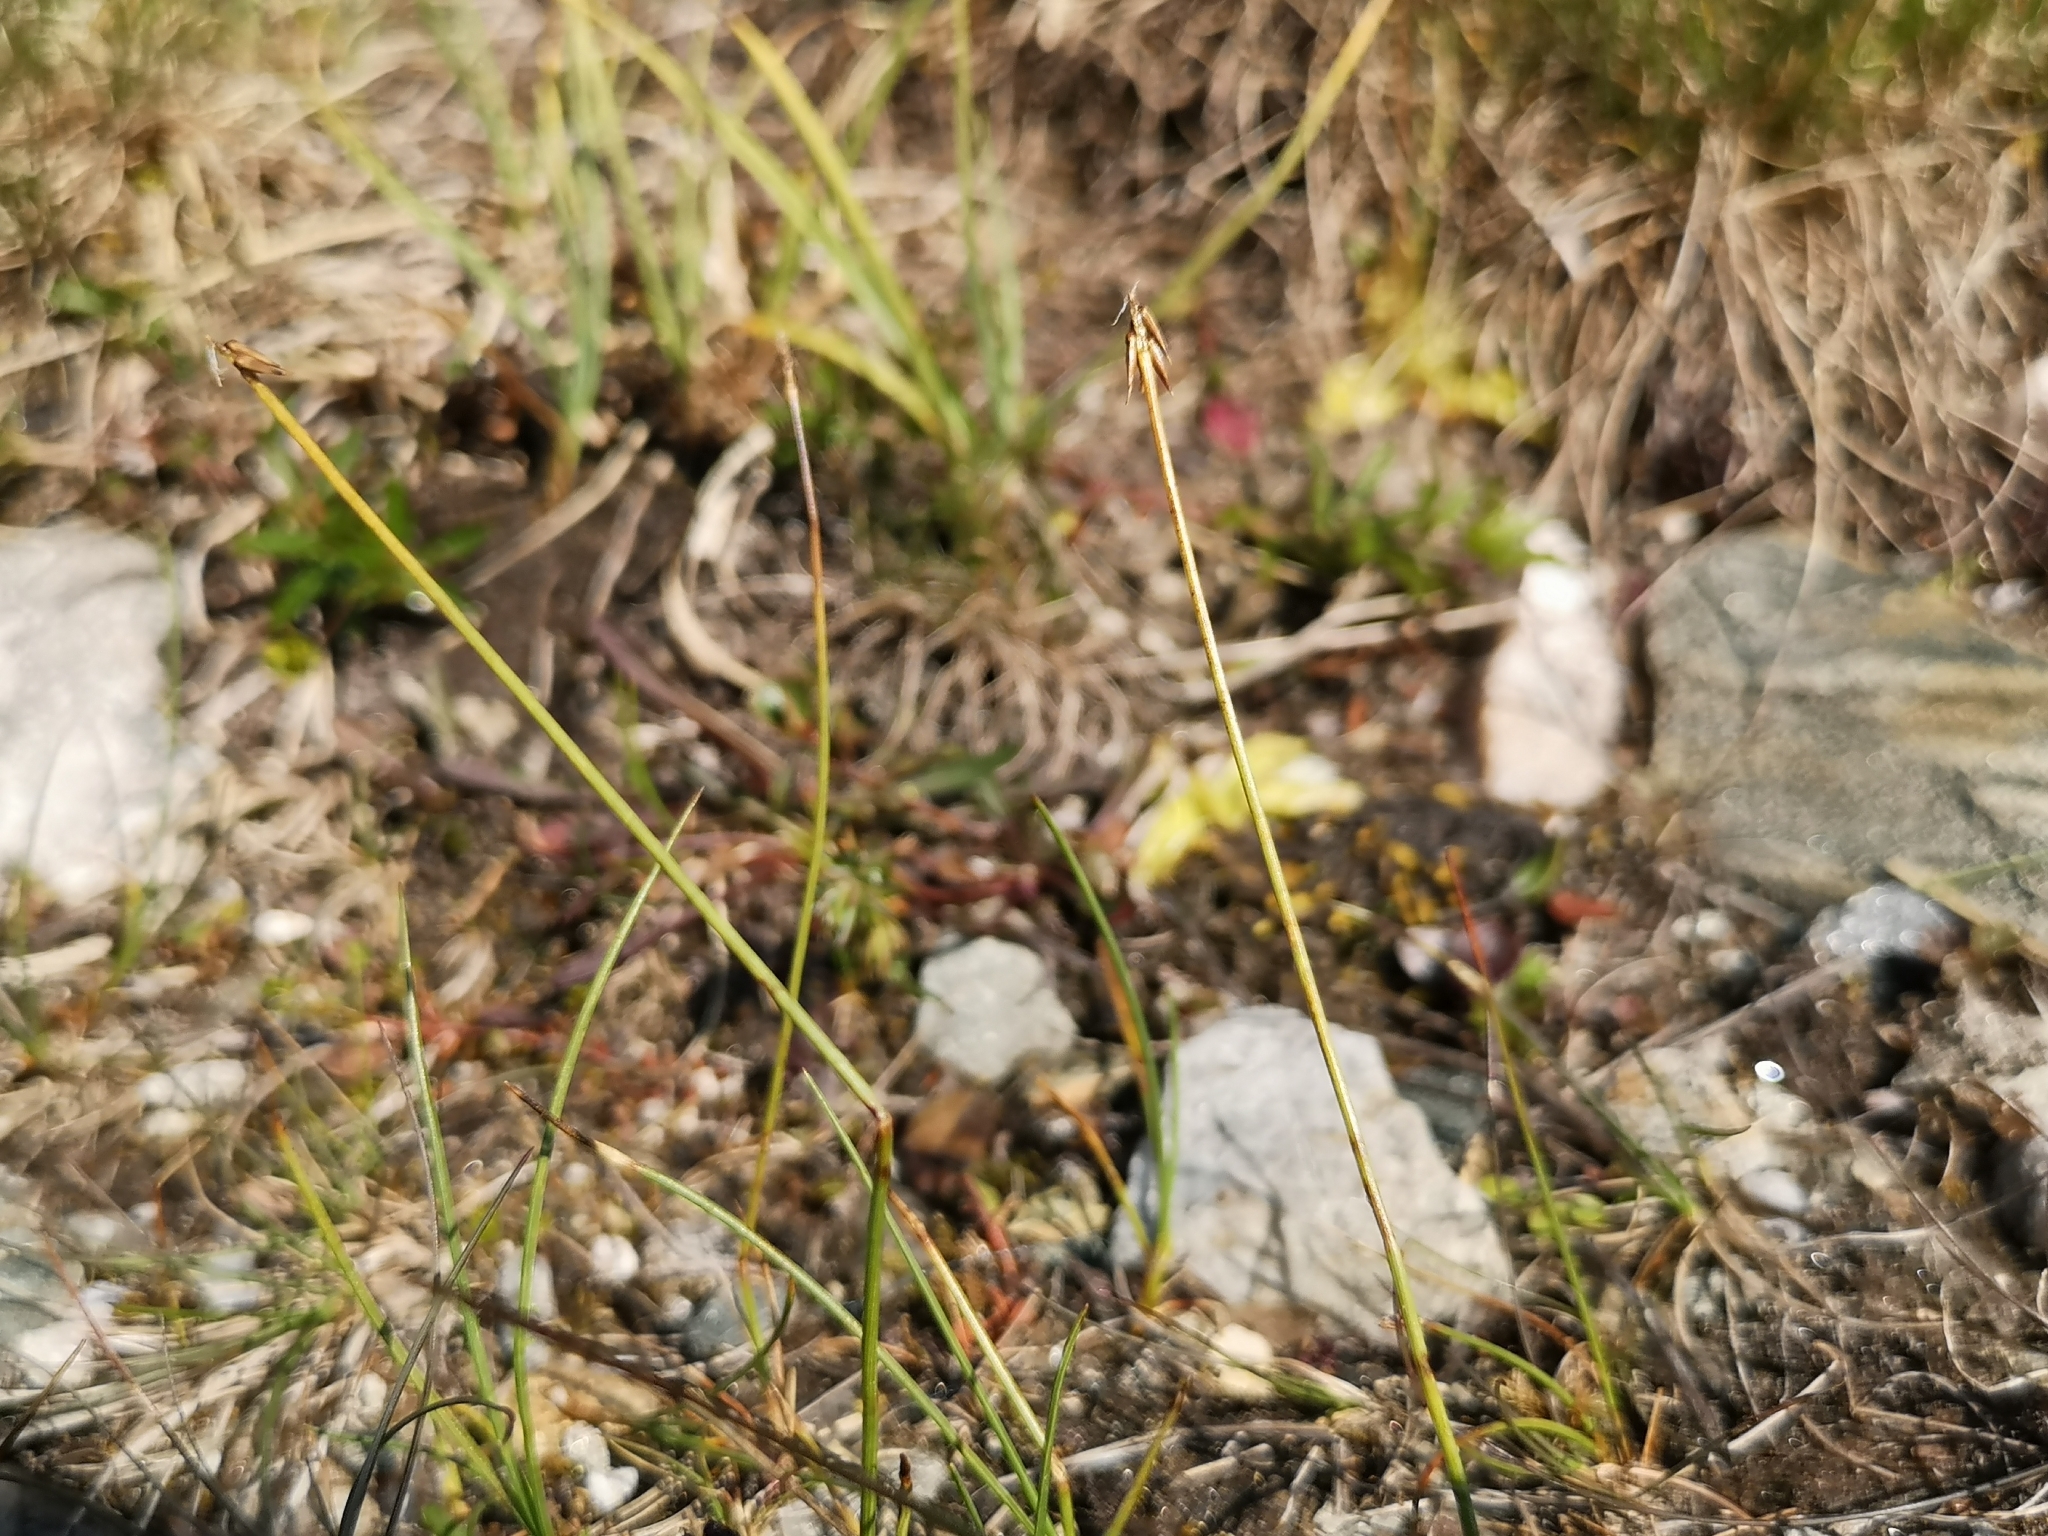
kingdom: Plantae
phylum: Tracheophyta
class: Liliopsida
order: Poales
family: Cyperaceae
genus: Carex
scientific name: Carex pauciflora
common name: Few-flowered sedge
